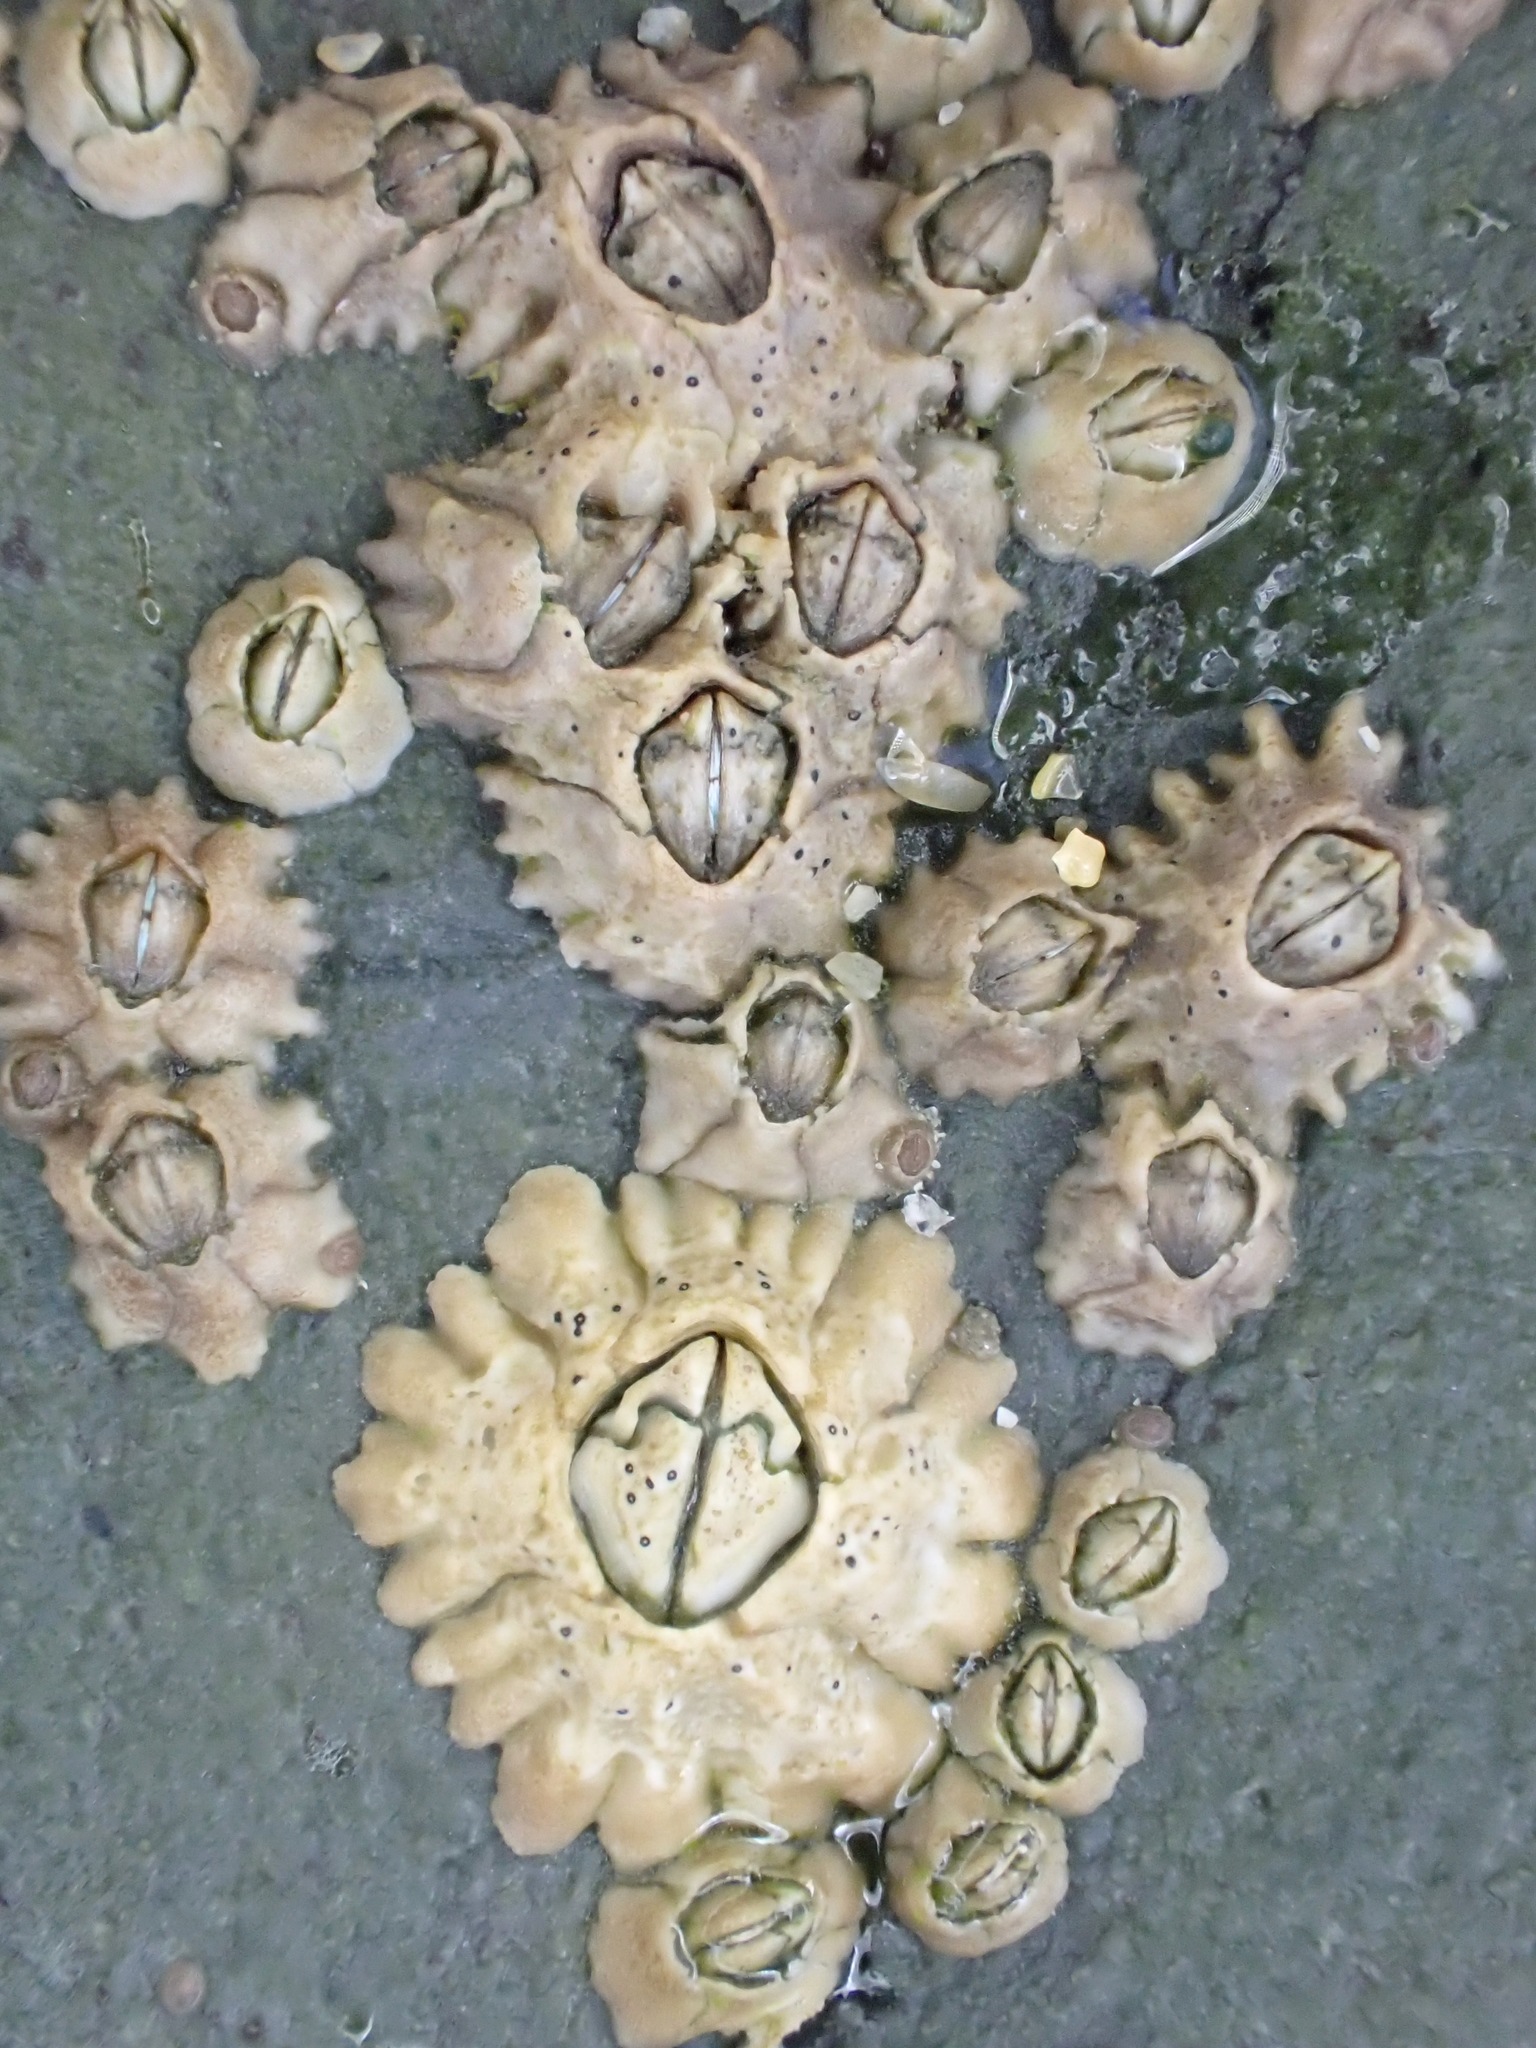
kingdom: Animalia
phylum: Arthropoda
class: Maxillopoda
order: Sessilia
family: Archaeobalanidae
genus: Semibalanus
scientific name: Semibalanus balanoides
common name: Acorn barnacle
